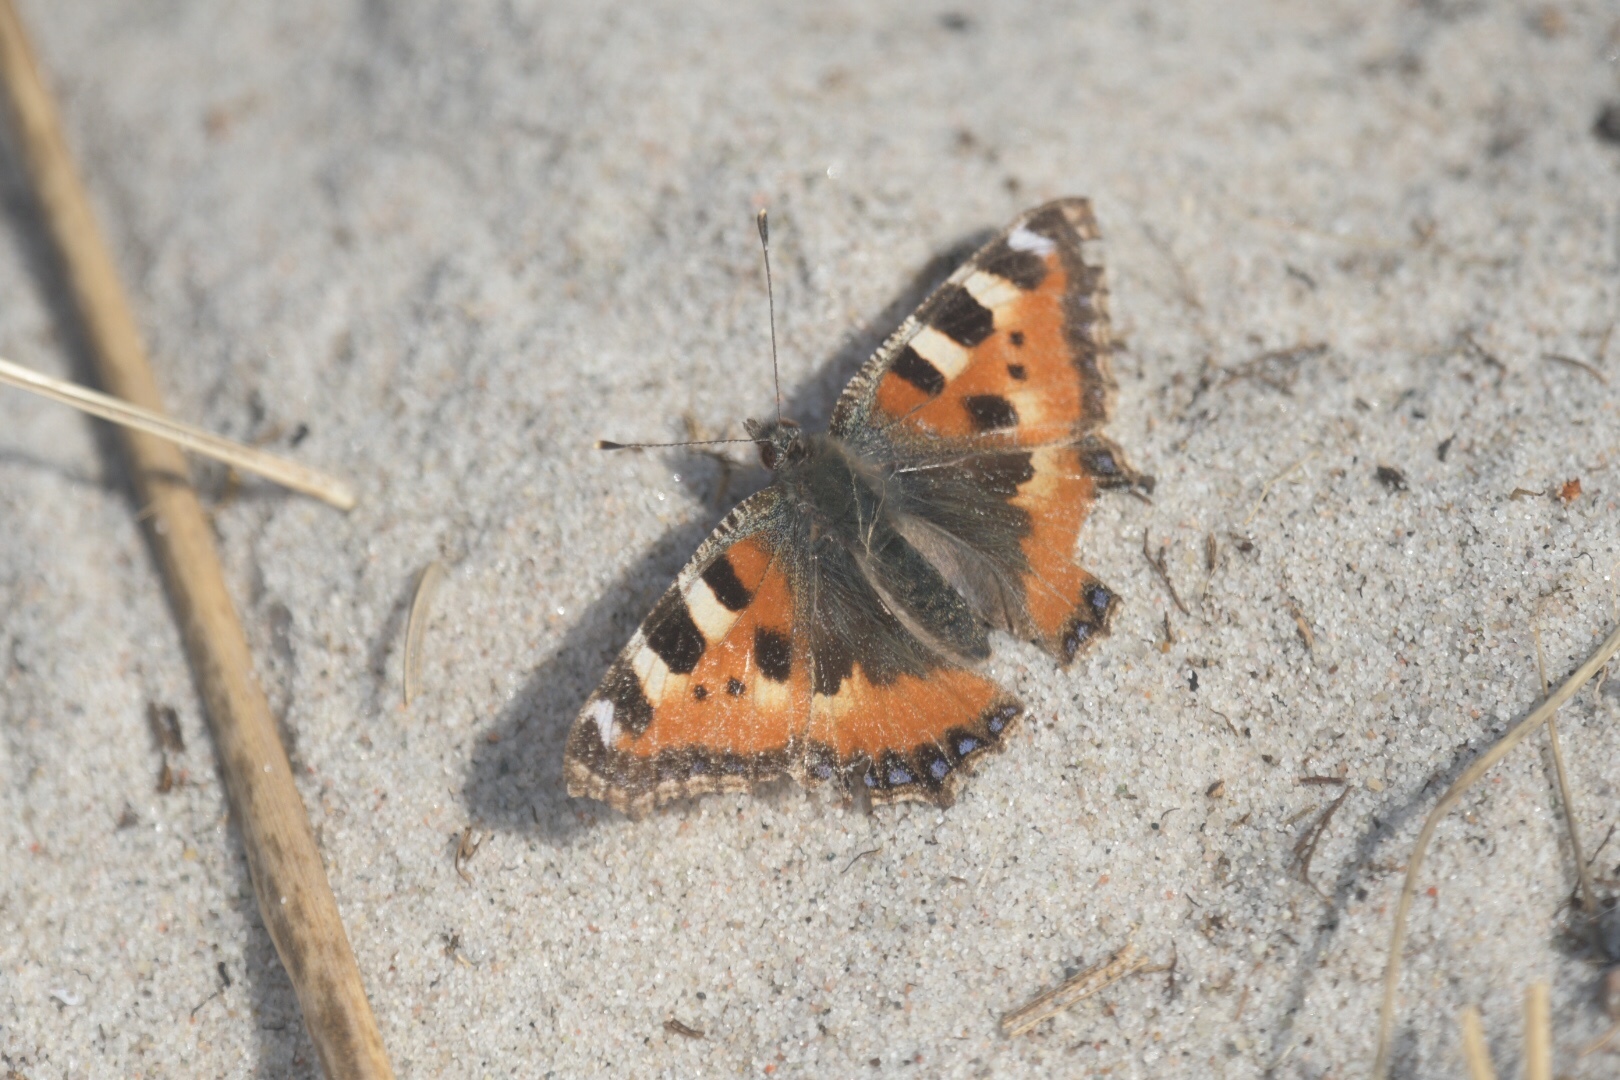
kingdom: Animalia
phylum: Arthropoda
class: Insecta
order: Lepidoptera
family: Nymphalidae
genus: Aglais
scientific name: Aglais urticae
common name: Small tortoiseshell
